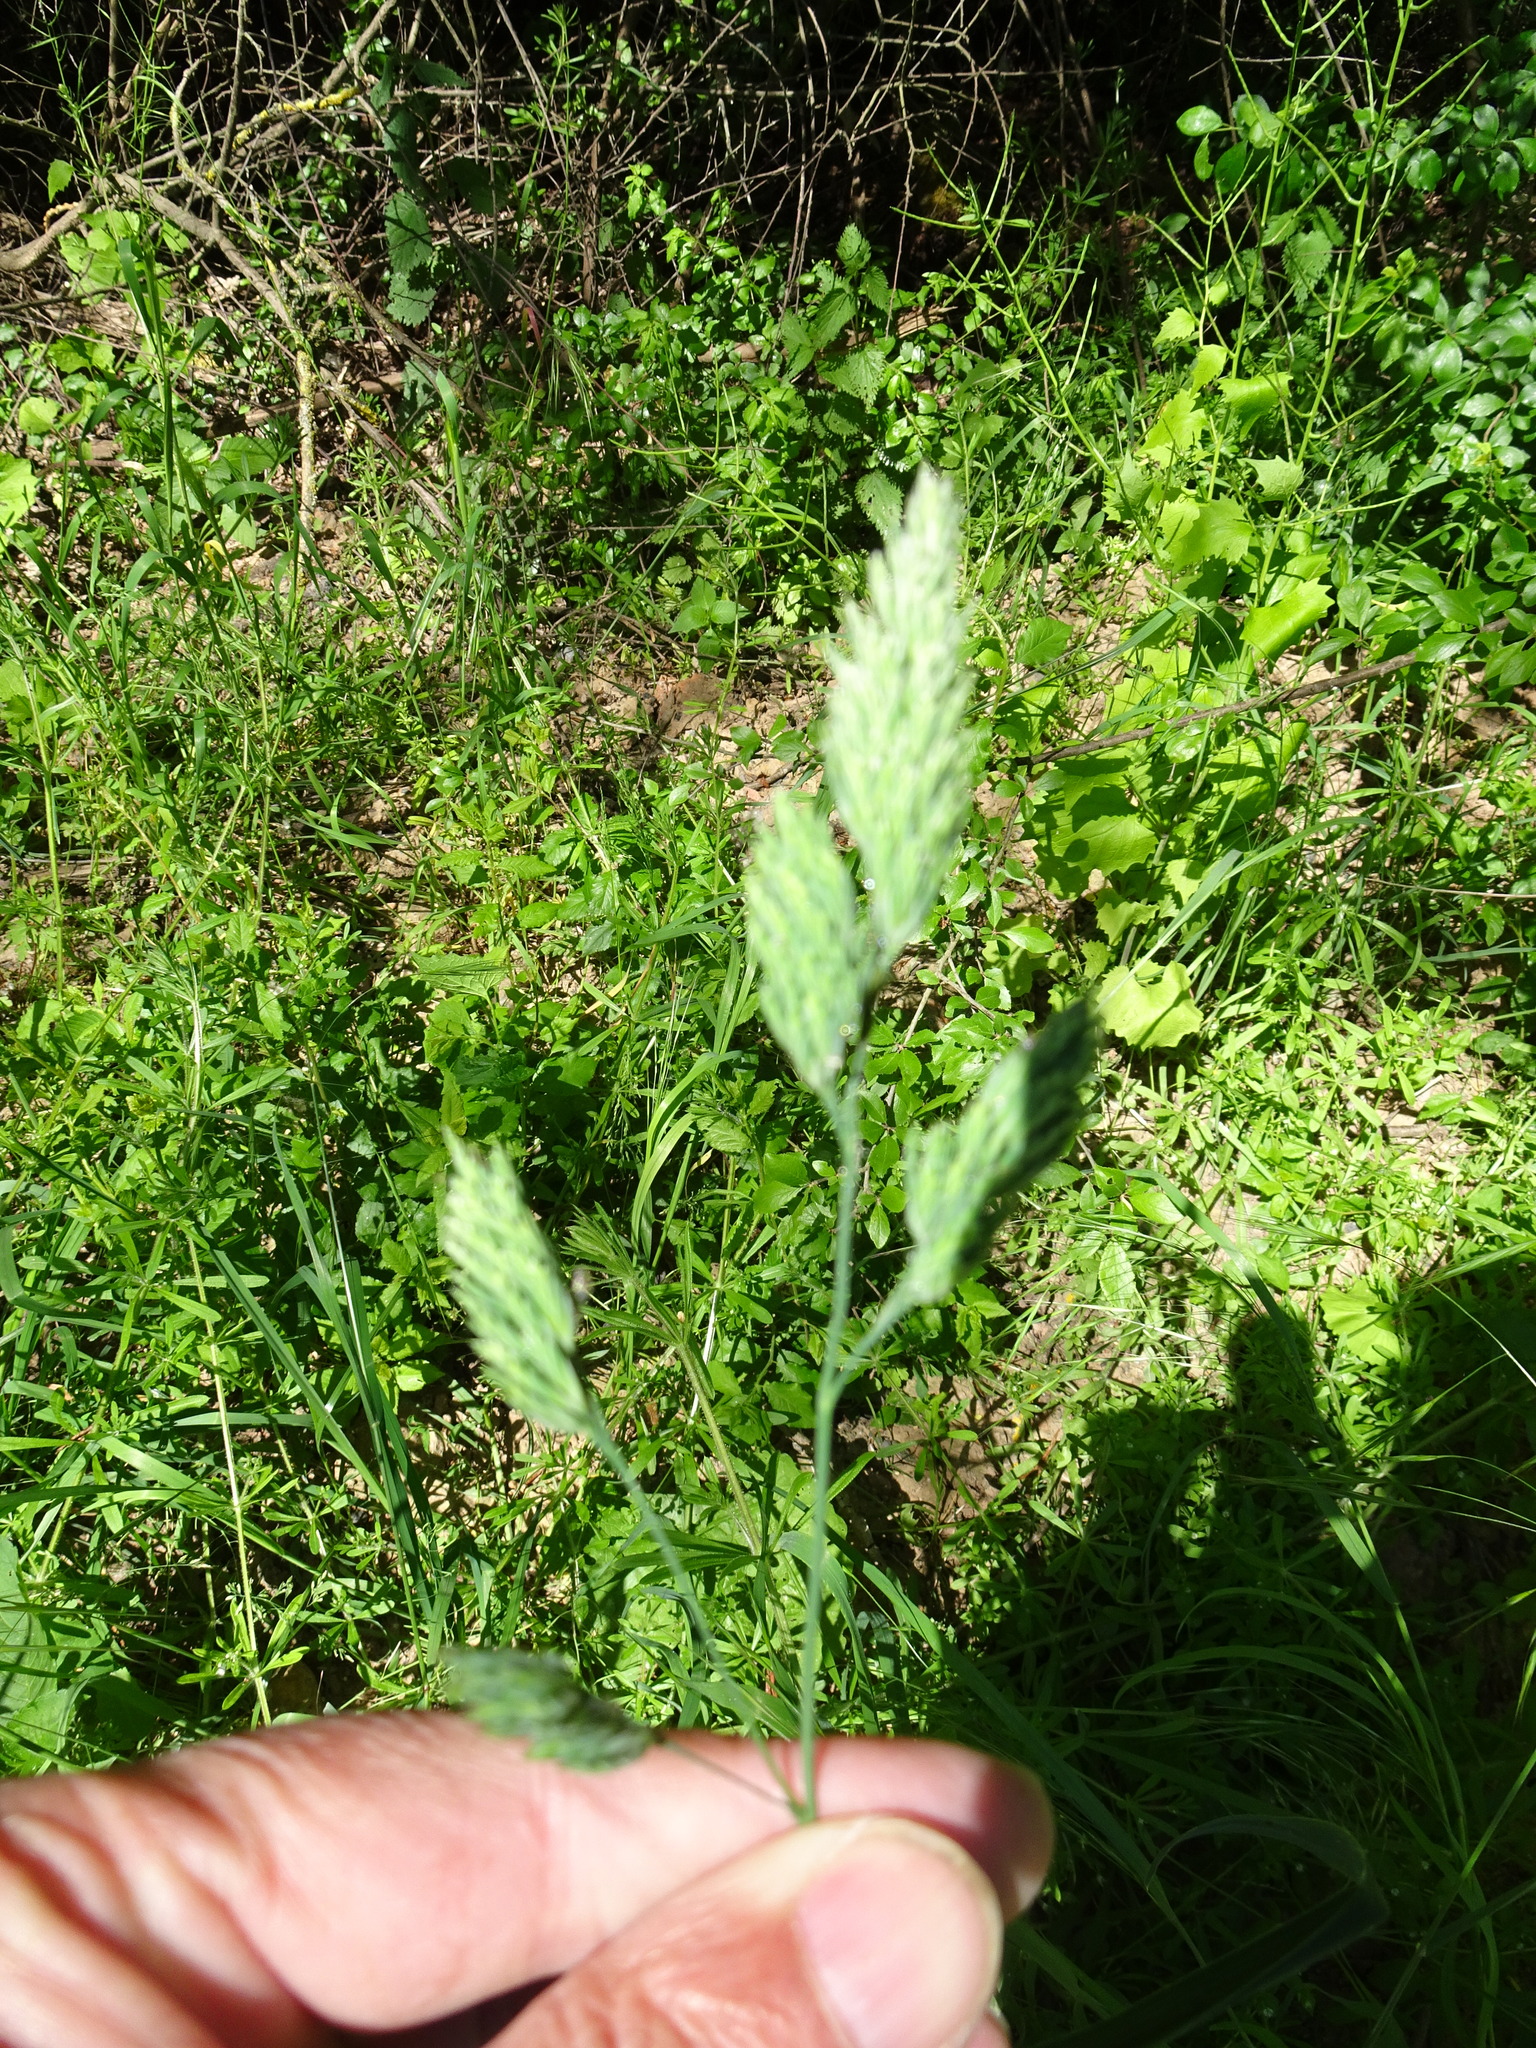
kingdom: Plantae
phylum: Tracheophyta
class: Liliopsida
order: Poales
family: Poaceae
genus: Dactylis
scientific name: Dactylis glomerata
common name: Orchardgrass
